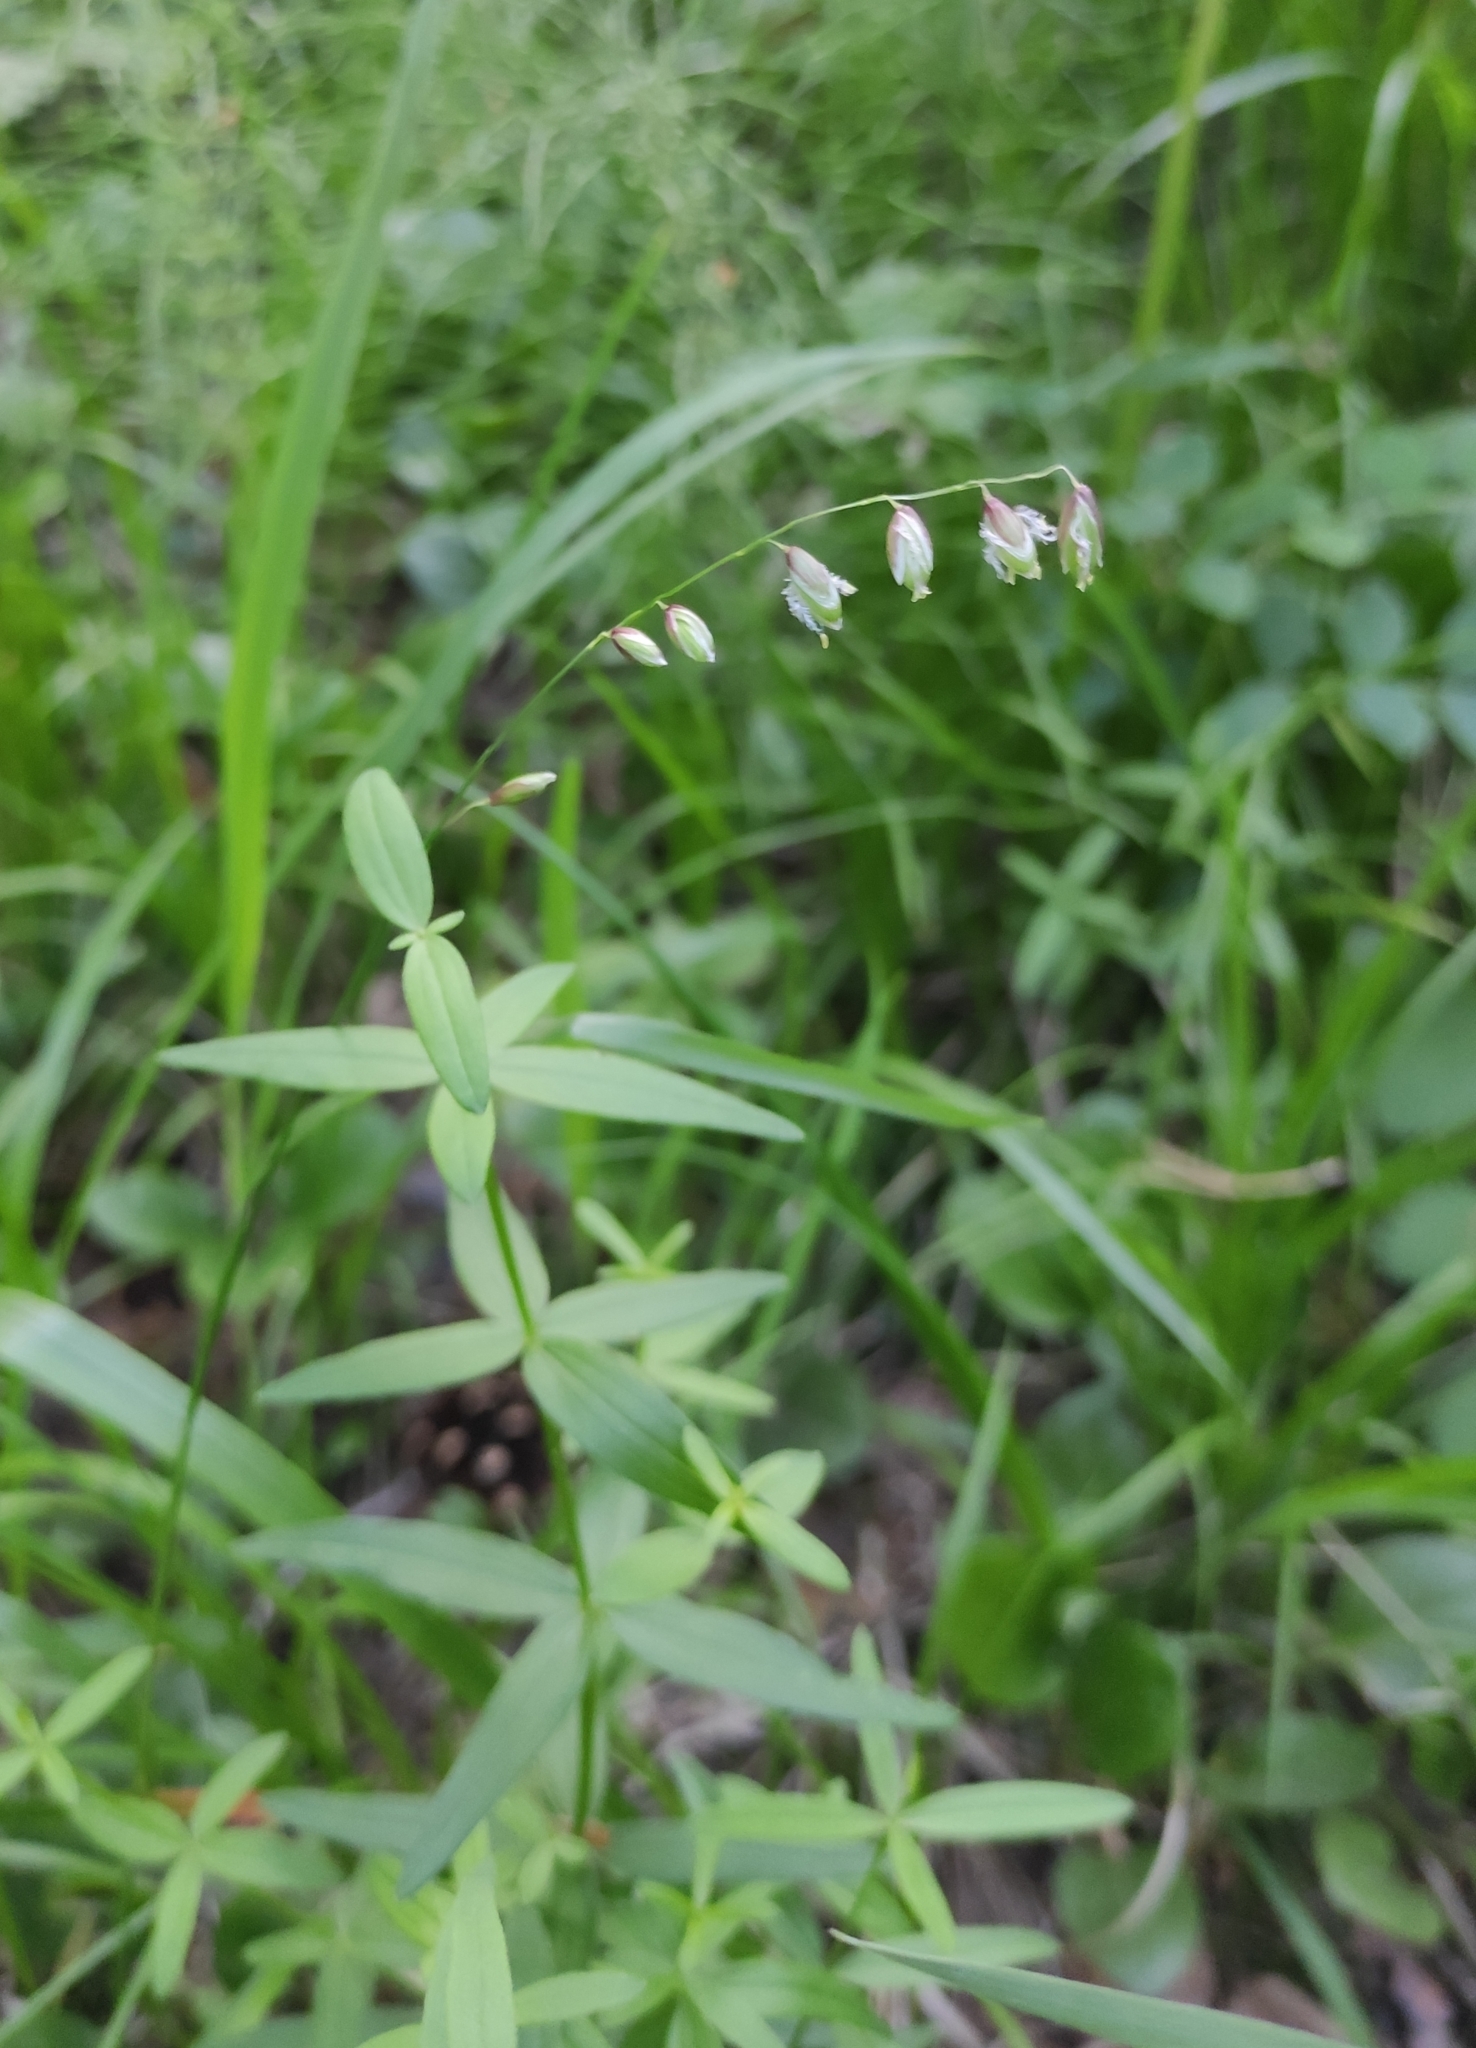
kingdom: Plantae
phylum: Tracheophyta
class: Liliopsida
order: Poales
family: Poaceae
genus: Melica
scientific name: Melica nutans
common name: Mountain melick
